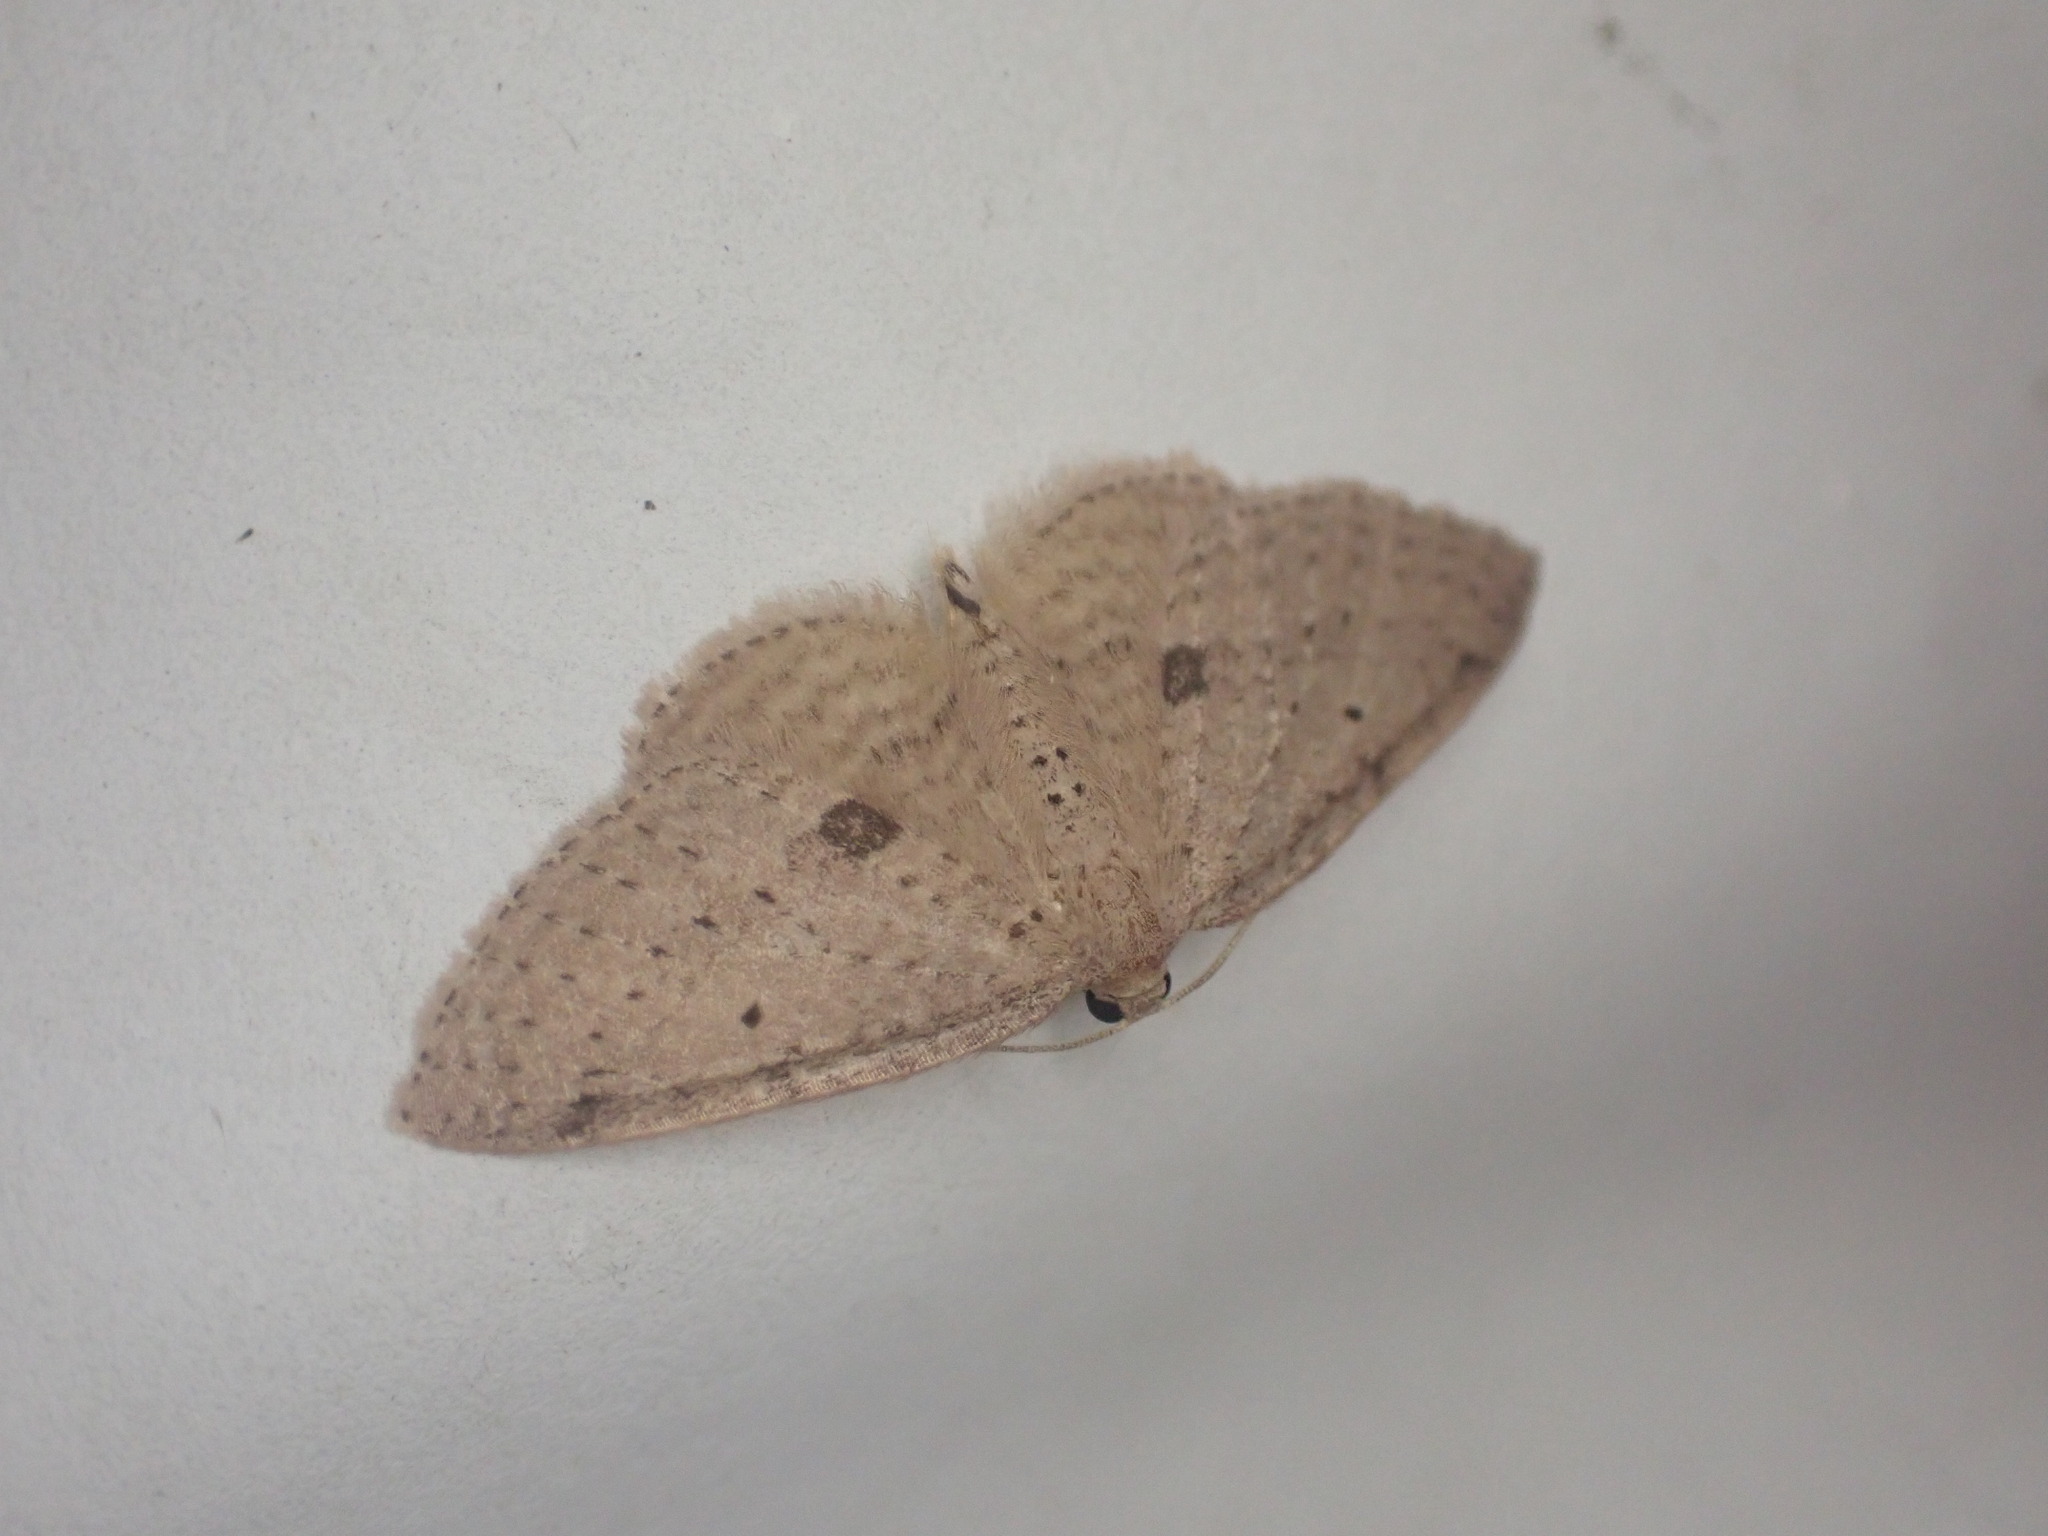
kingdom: Animalia
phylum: Arthropoda
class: Insecta
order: Lepidoptera
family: Geometridae
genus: Poecilasthena
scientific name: Poecilasthena schistaria
